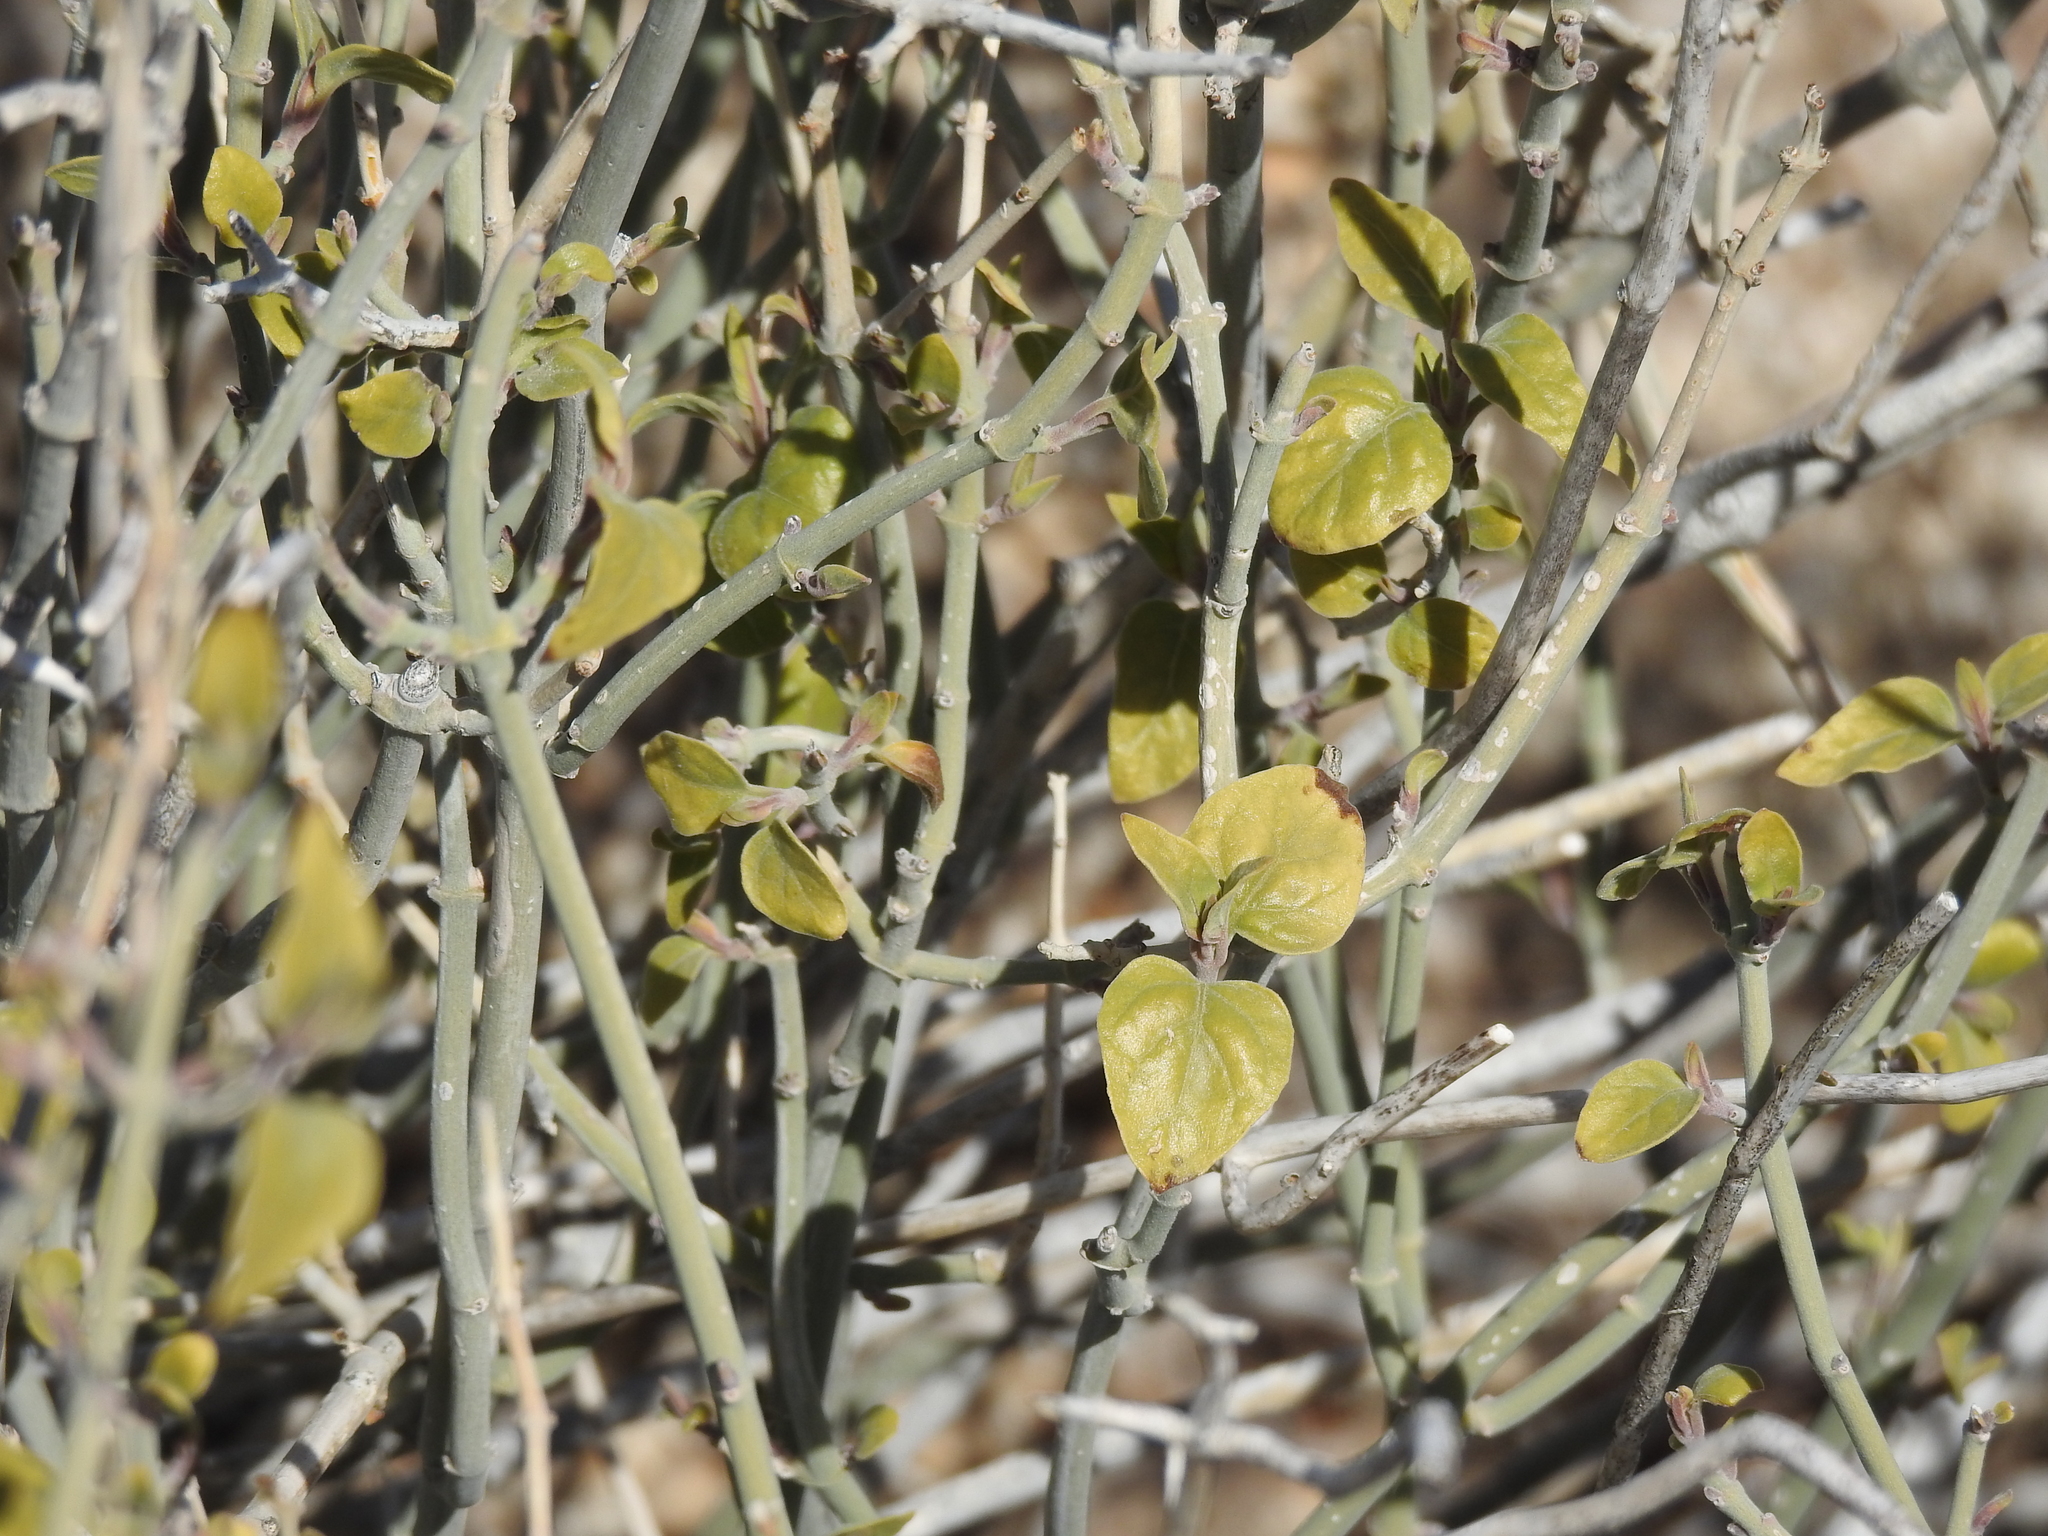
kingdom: Plantae
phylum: Tracheophyta
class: Magnoliopsida
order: Lamiales
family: Acanthaceae
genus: Justicia
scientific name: Justicia californica
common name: Chuparosa-honeysuckle
